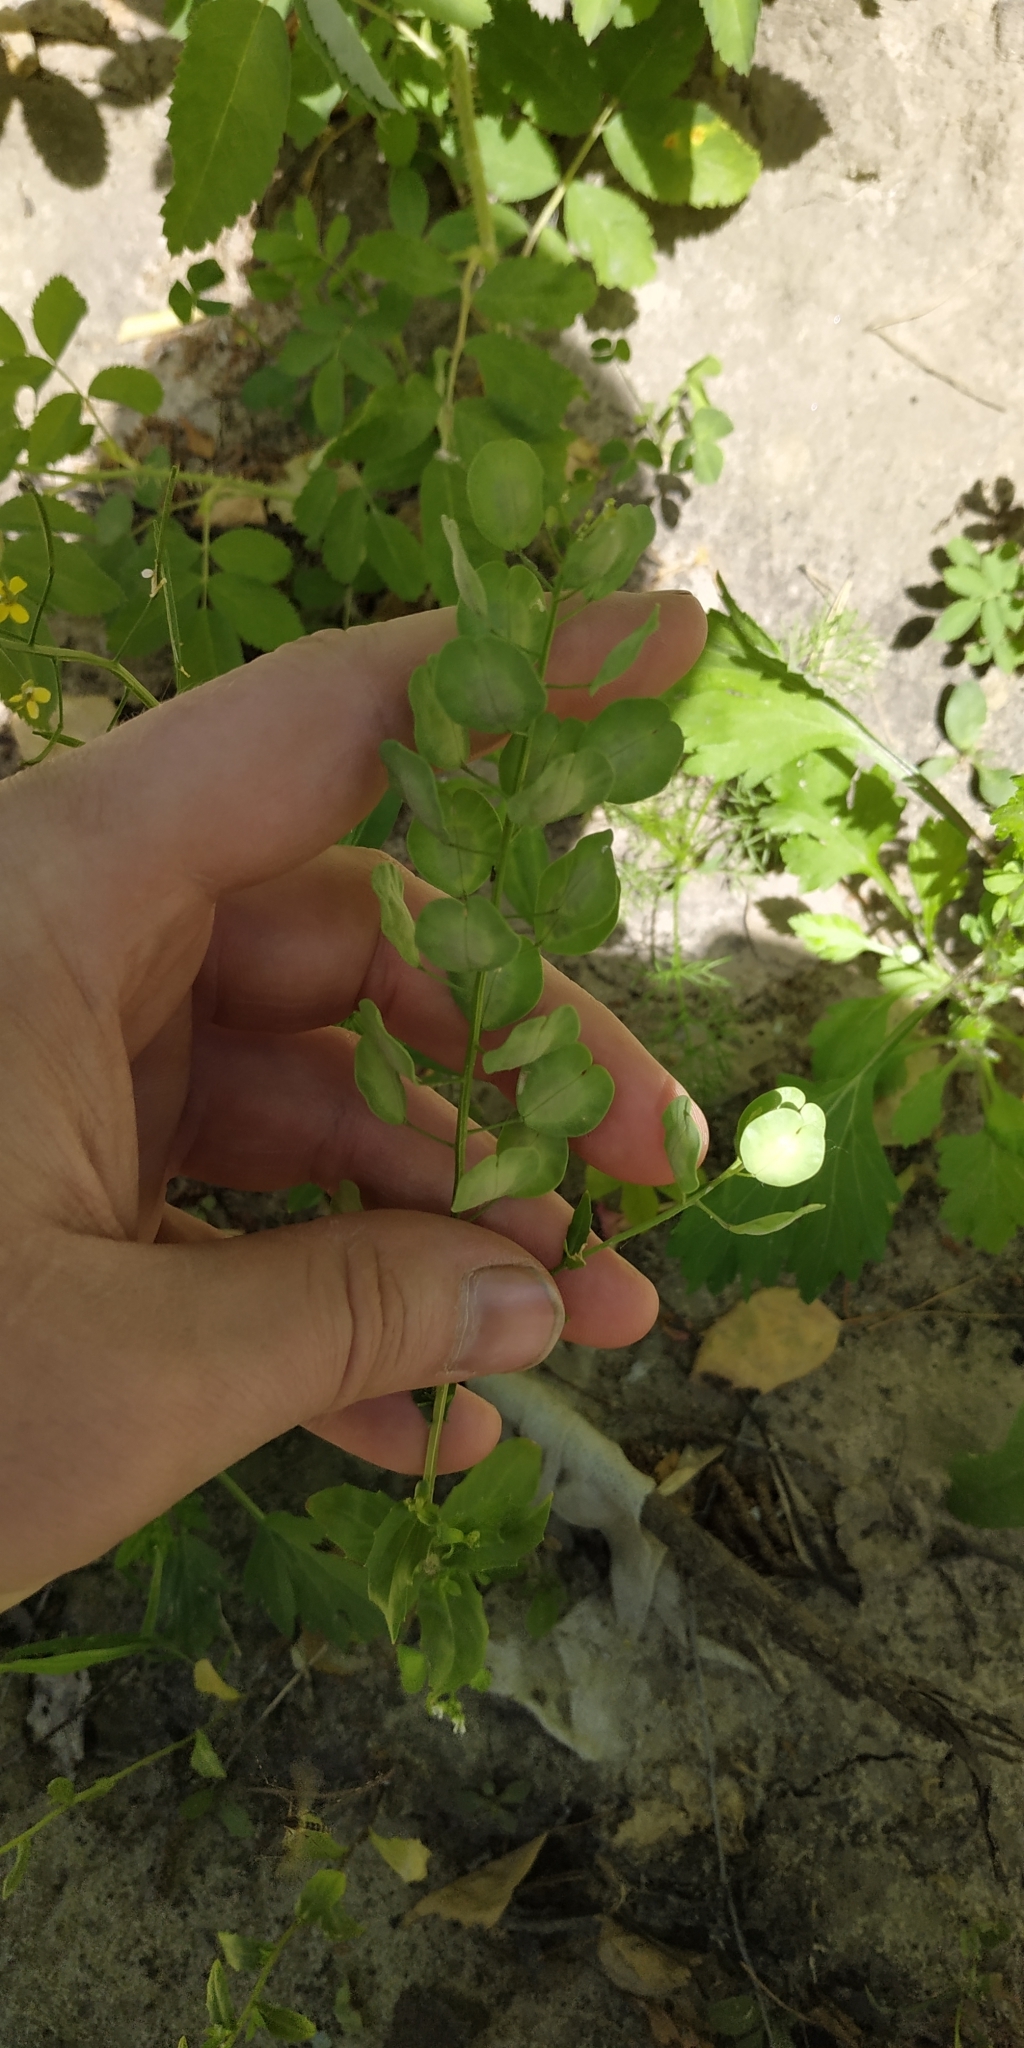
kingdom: Plantae
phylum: Tracheophyta
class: Magnoliopsida
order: Brassicales
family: Brassicaceae
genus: Thlaspi
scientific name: Thlaspi arvense
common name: Field pennycress
